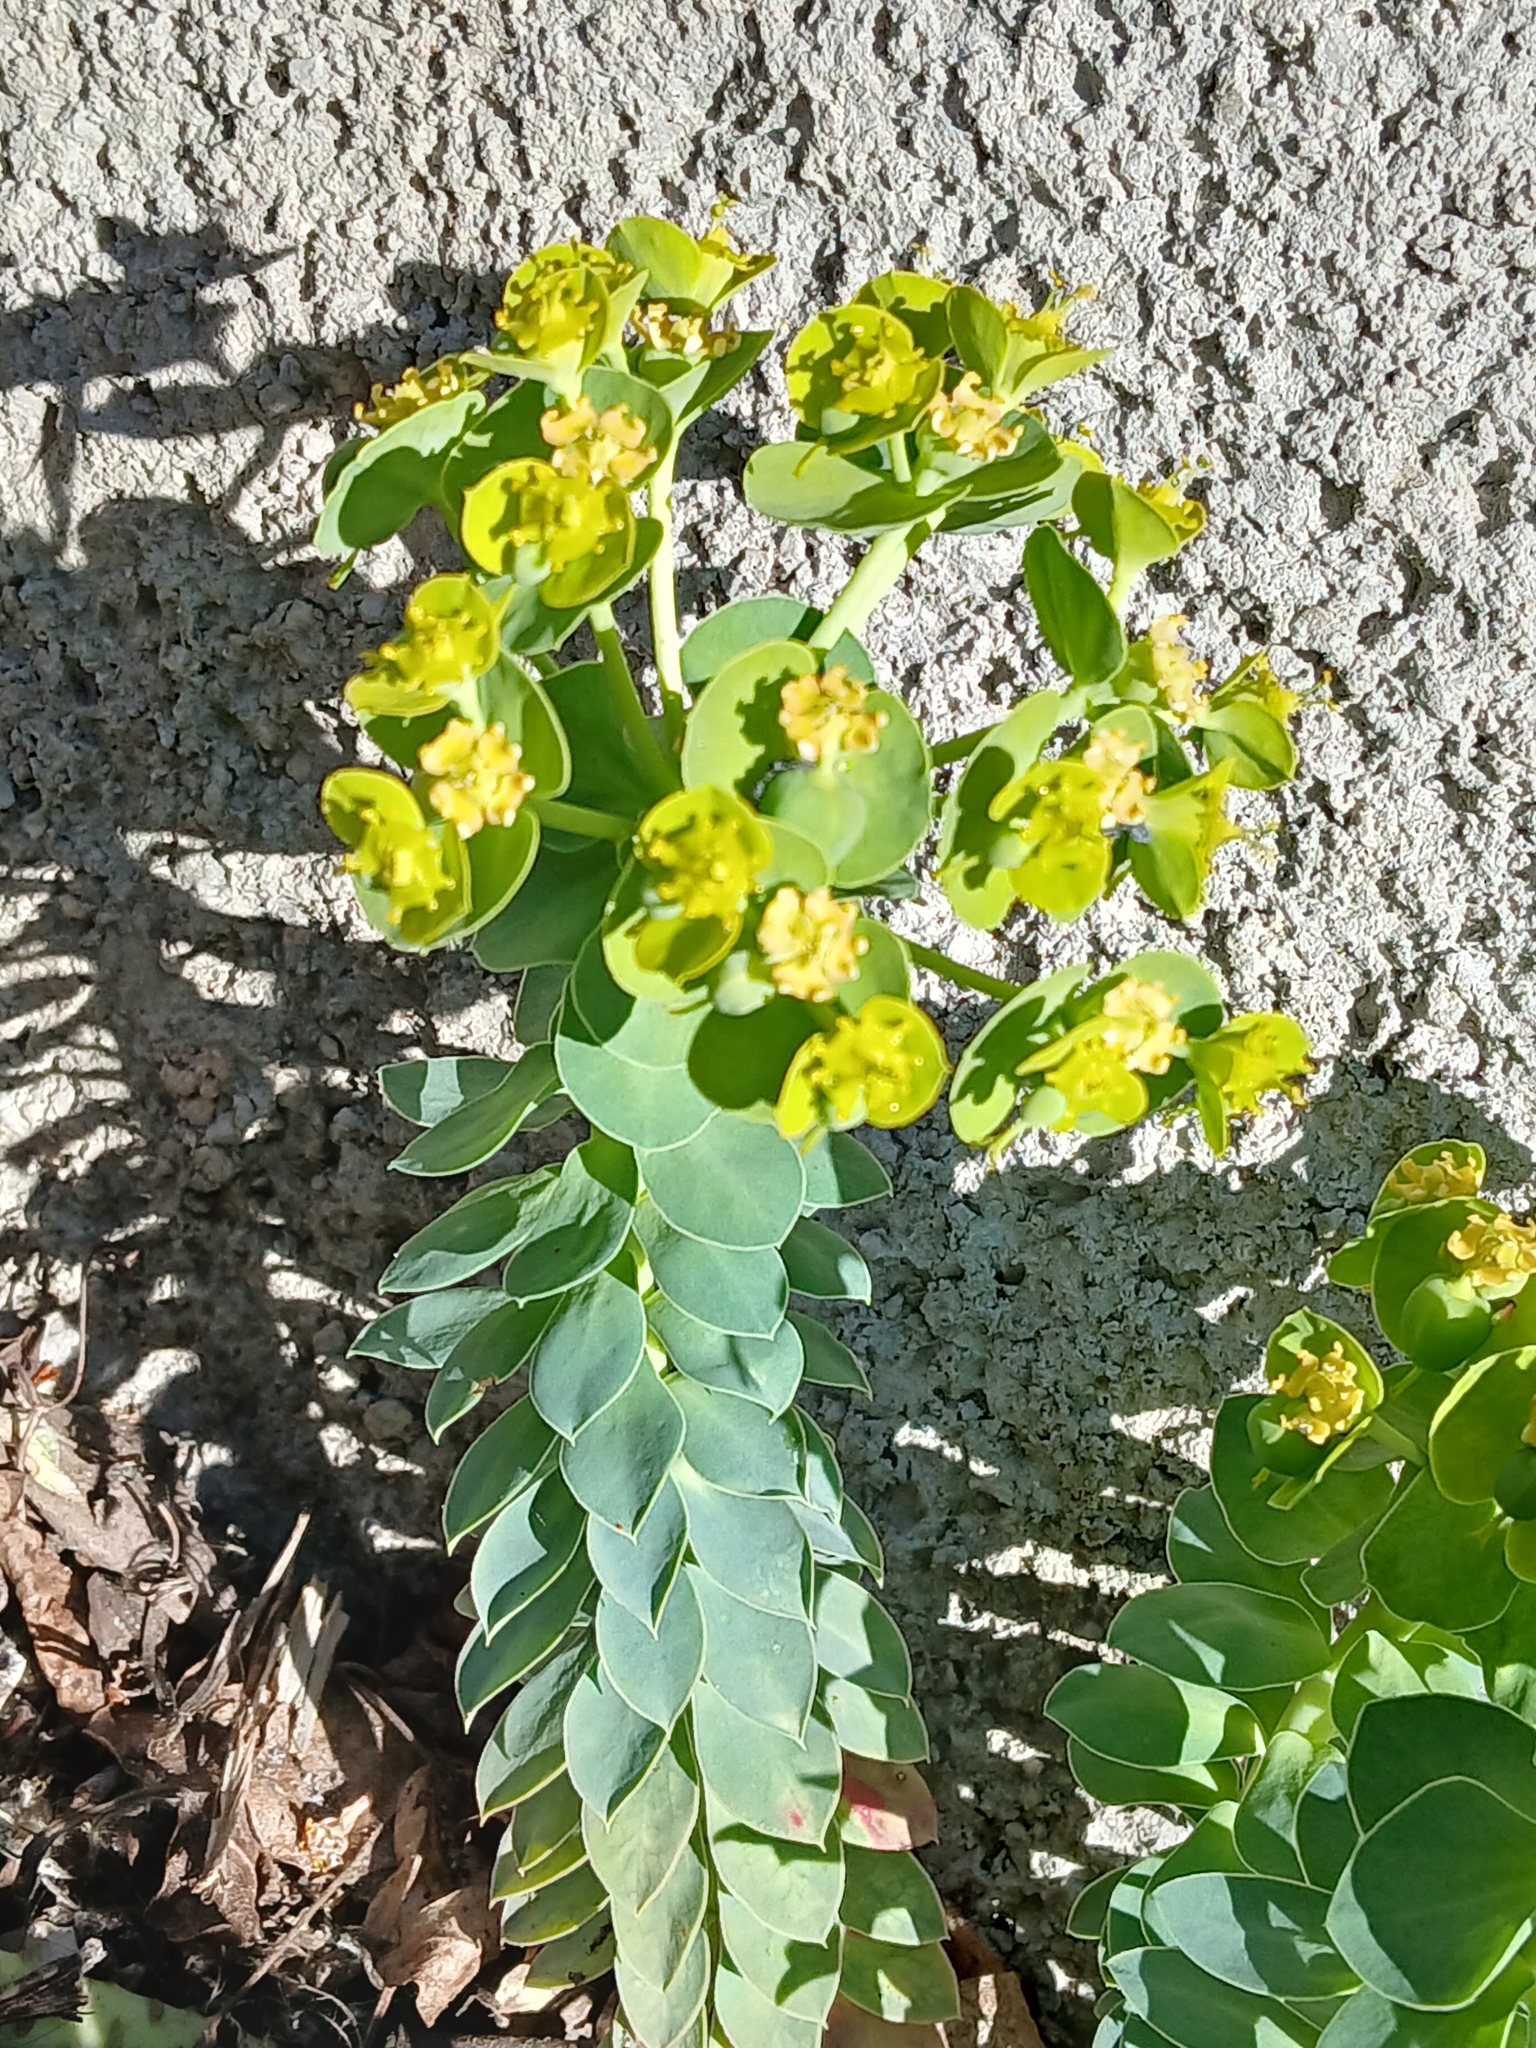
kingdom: Plantae
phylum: Tracheophyta
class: Magnoliopsida
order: Malpighiales
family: Euphorbiaceae
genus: Euphorbia
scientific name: Euphorbia myrsinites
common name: Myrtle spurge
